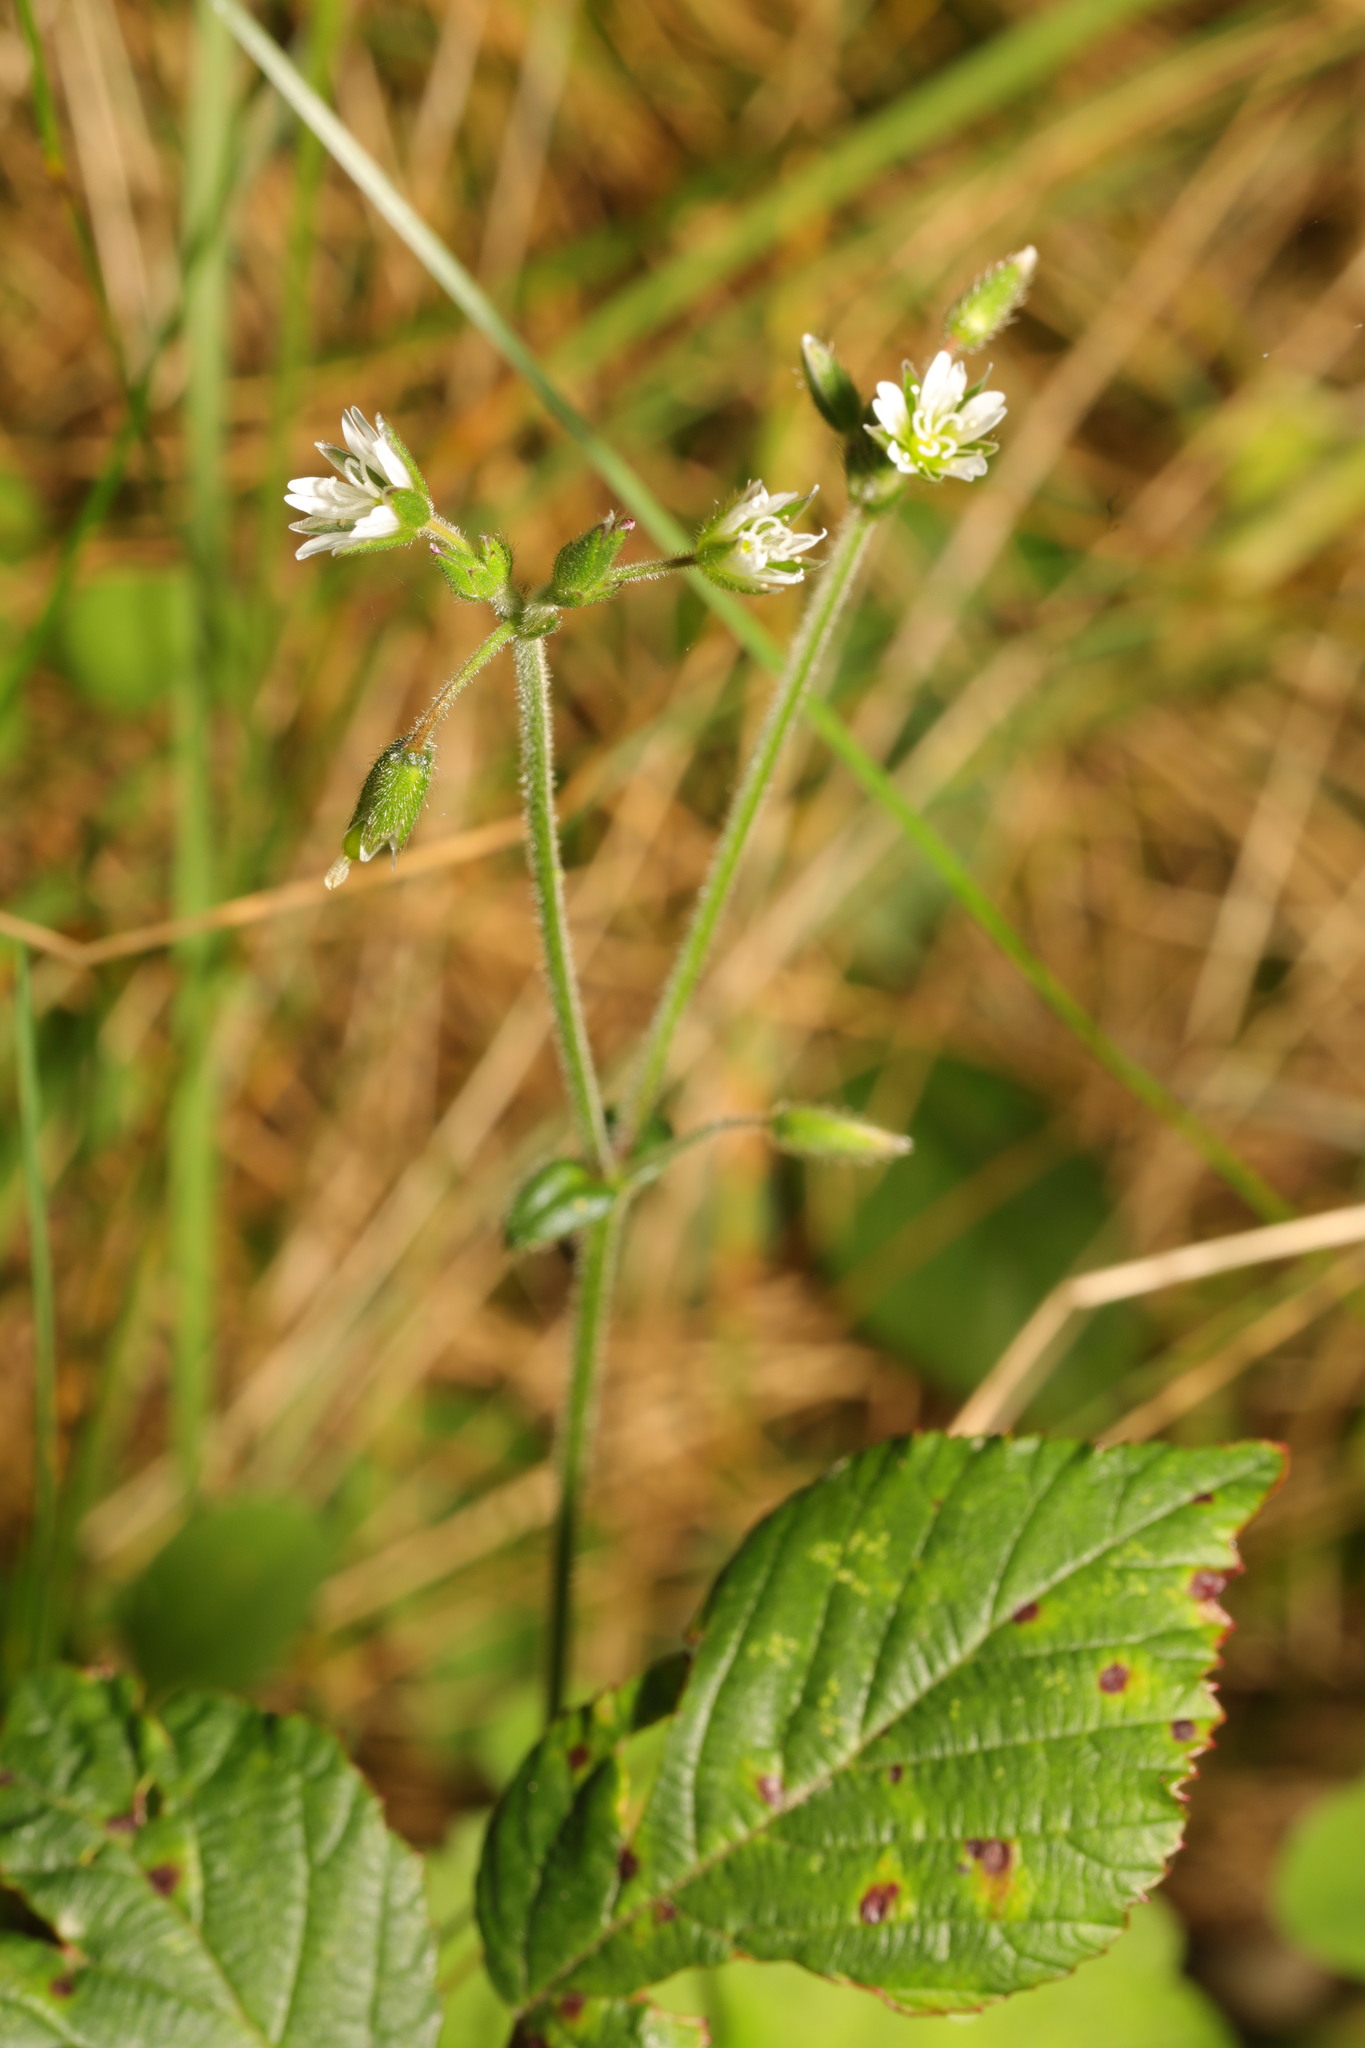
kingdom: Plantae
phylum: Tracheophyta
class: Magnoliopsida
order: Caryophyllales
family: Caryophyllaceae
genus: Cerastium
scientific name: Cerastium fontanum
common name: Common mouse-ear
